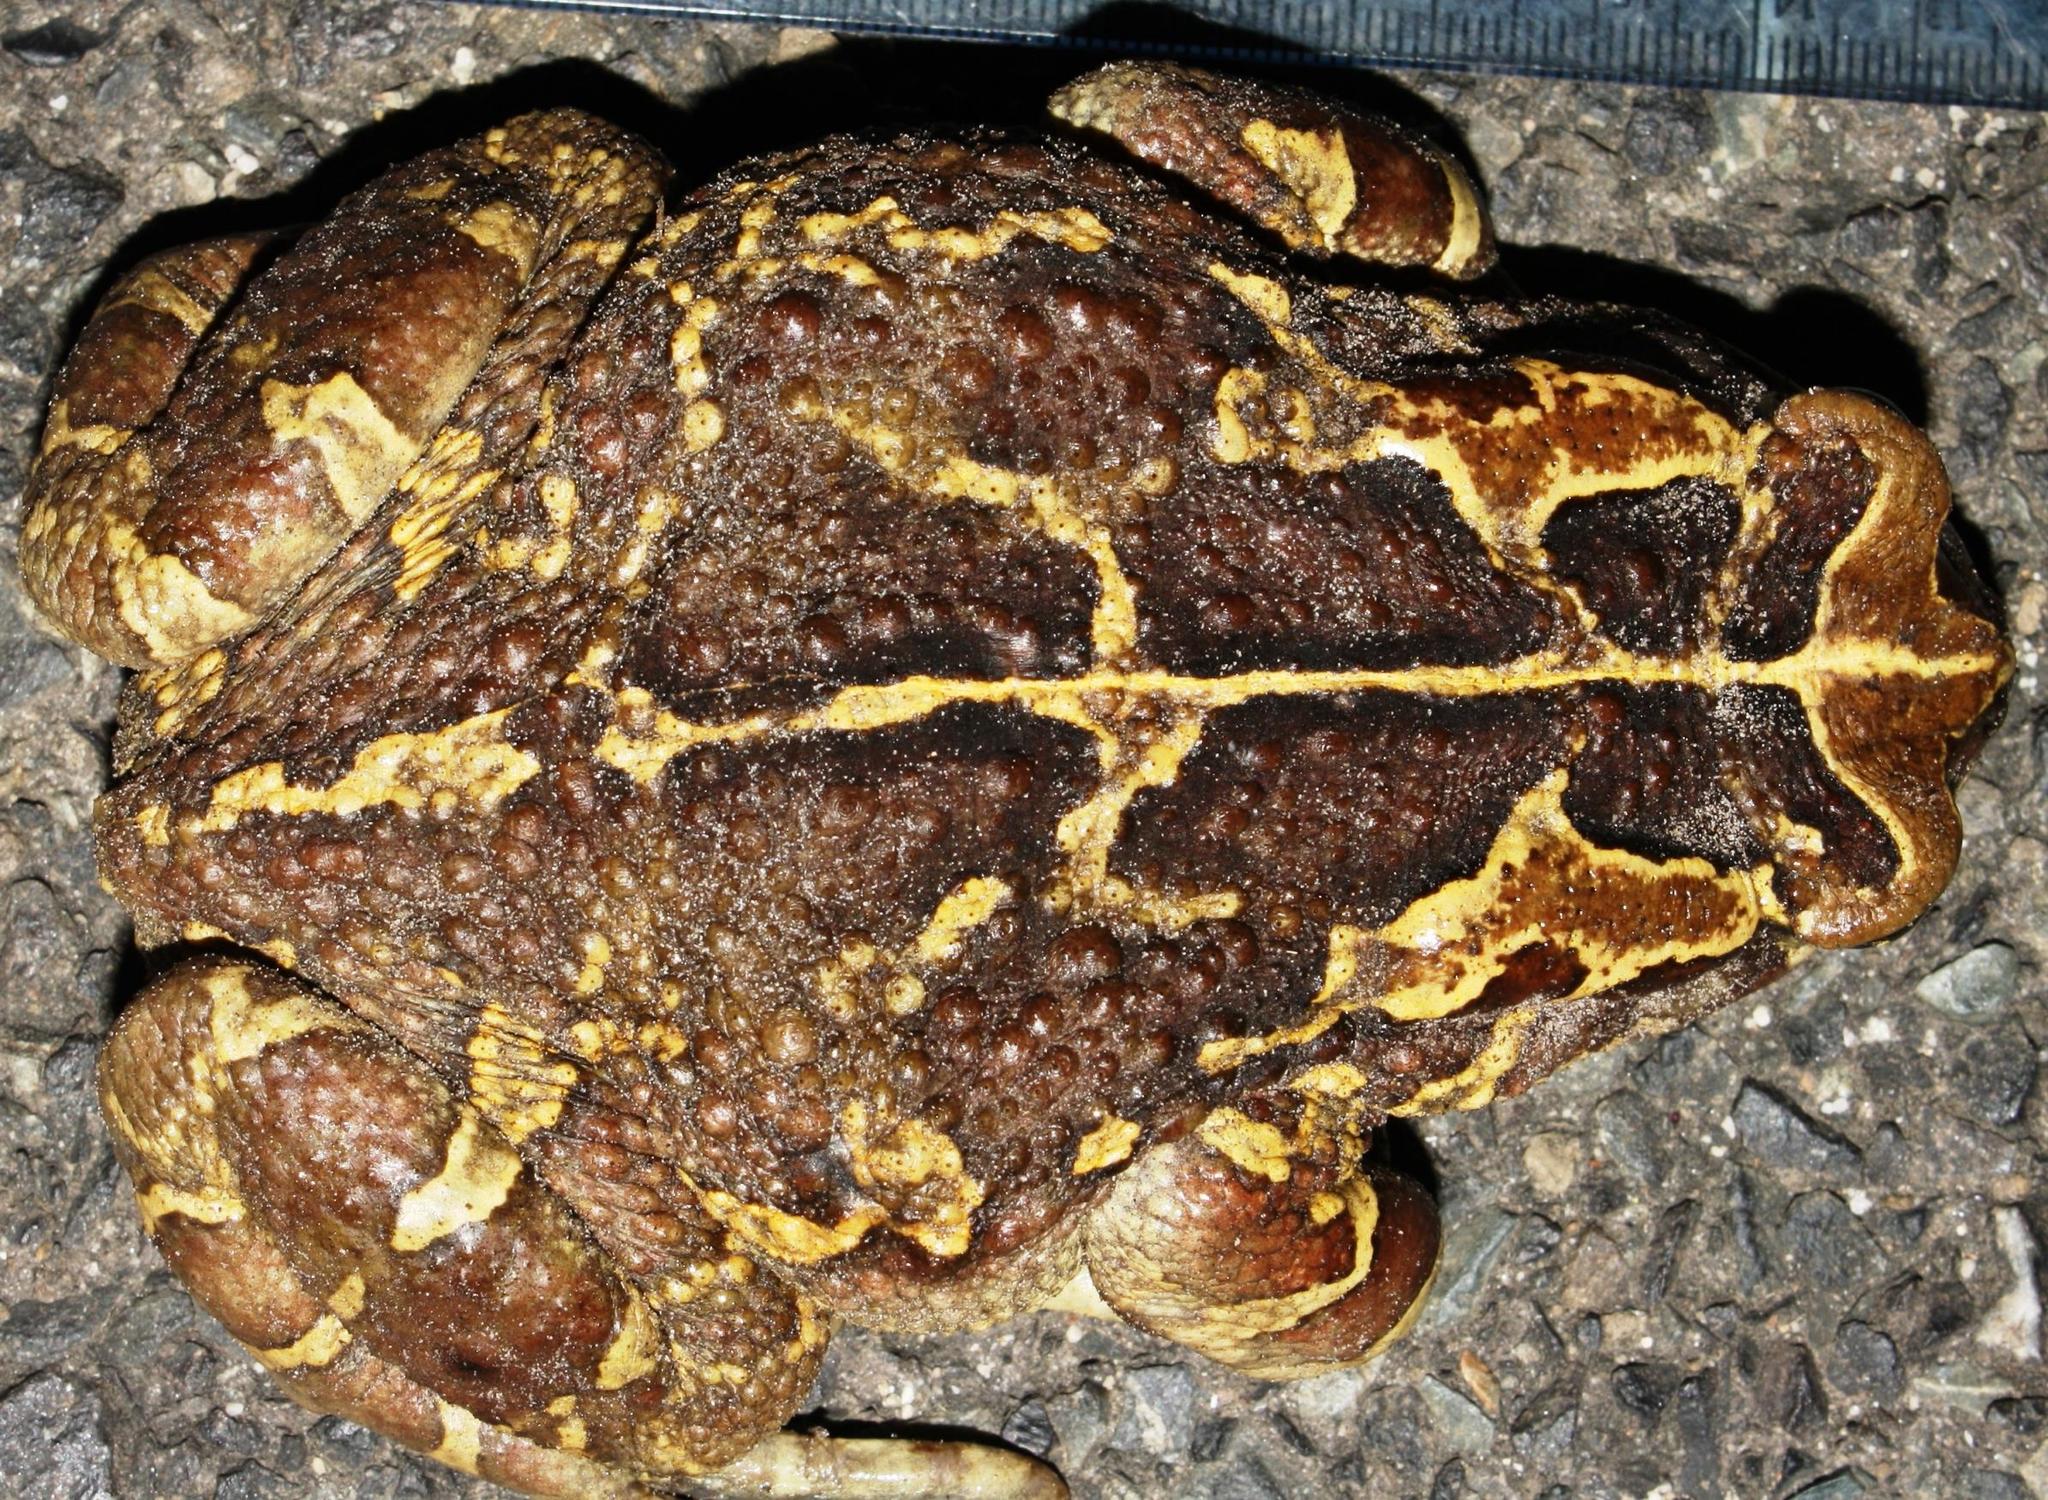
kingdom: Animalia
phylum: Chordata
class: Amphibia
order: Anura
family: Bufonidae
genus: Sclerophrys
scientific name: Sclerophrys pantherina
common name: Panther toad
